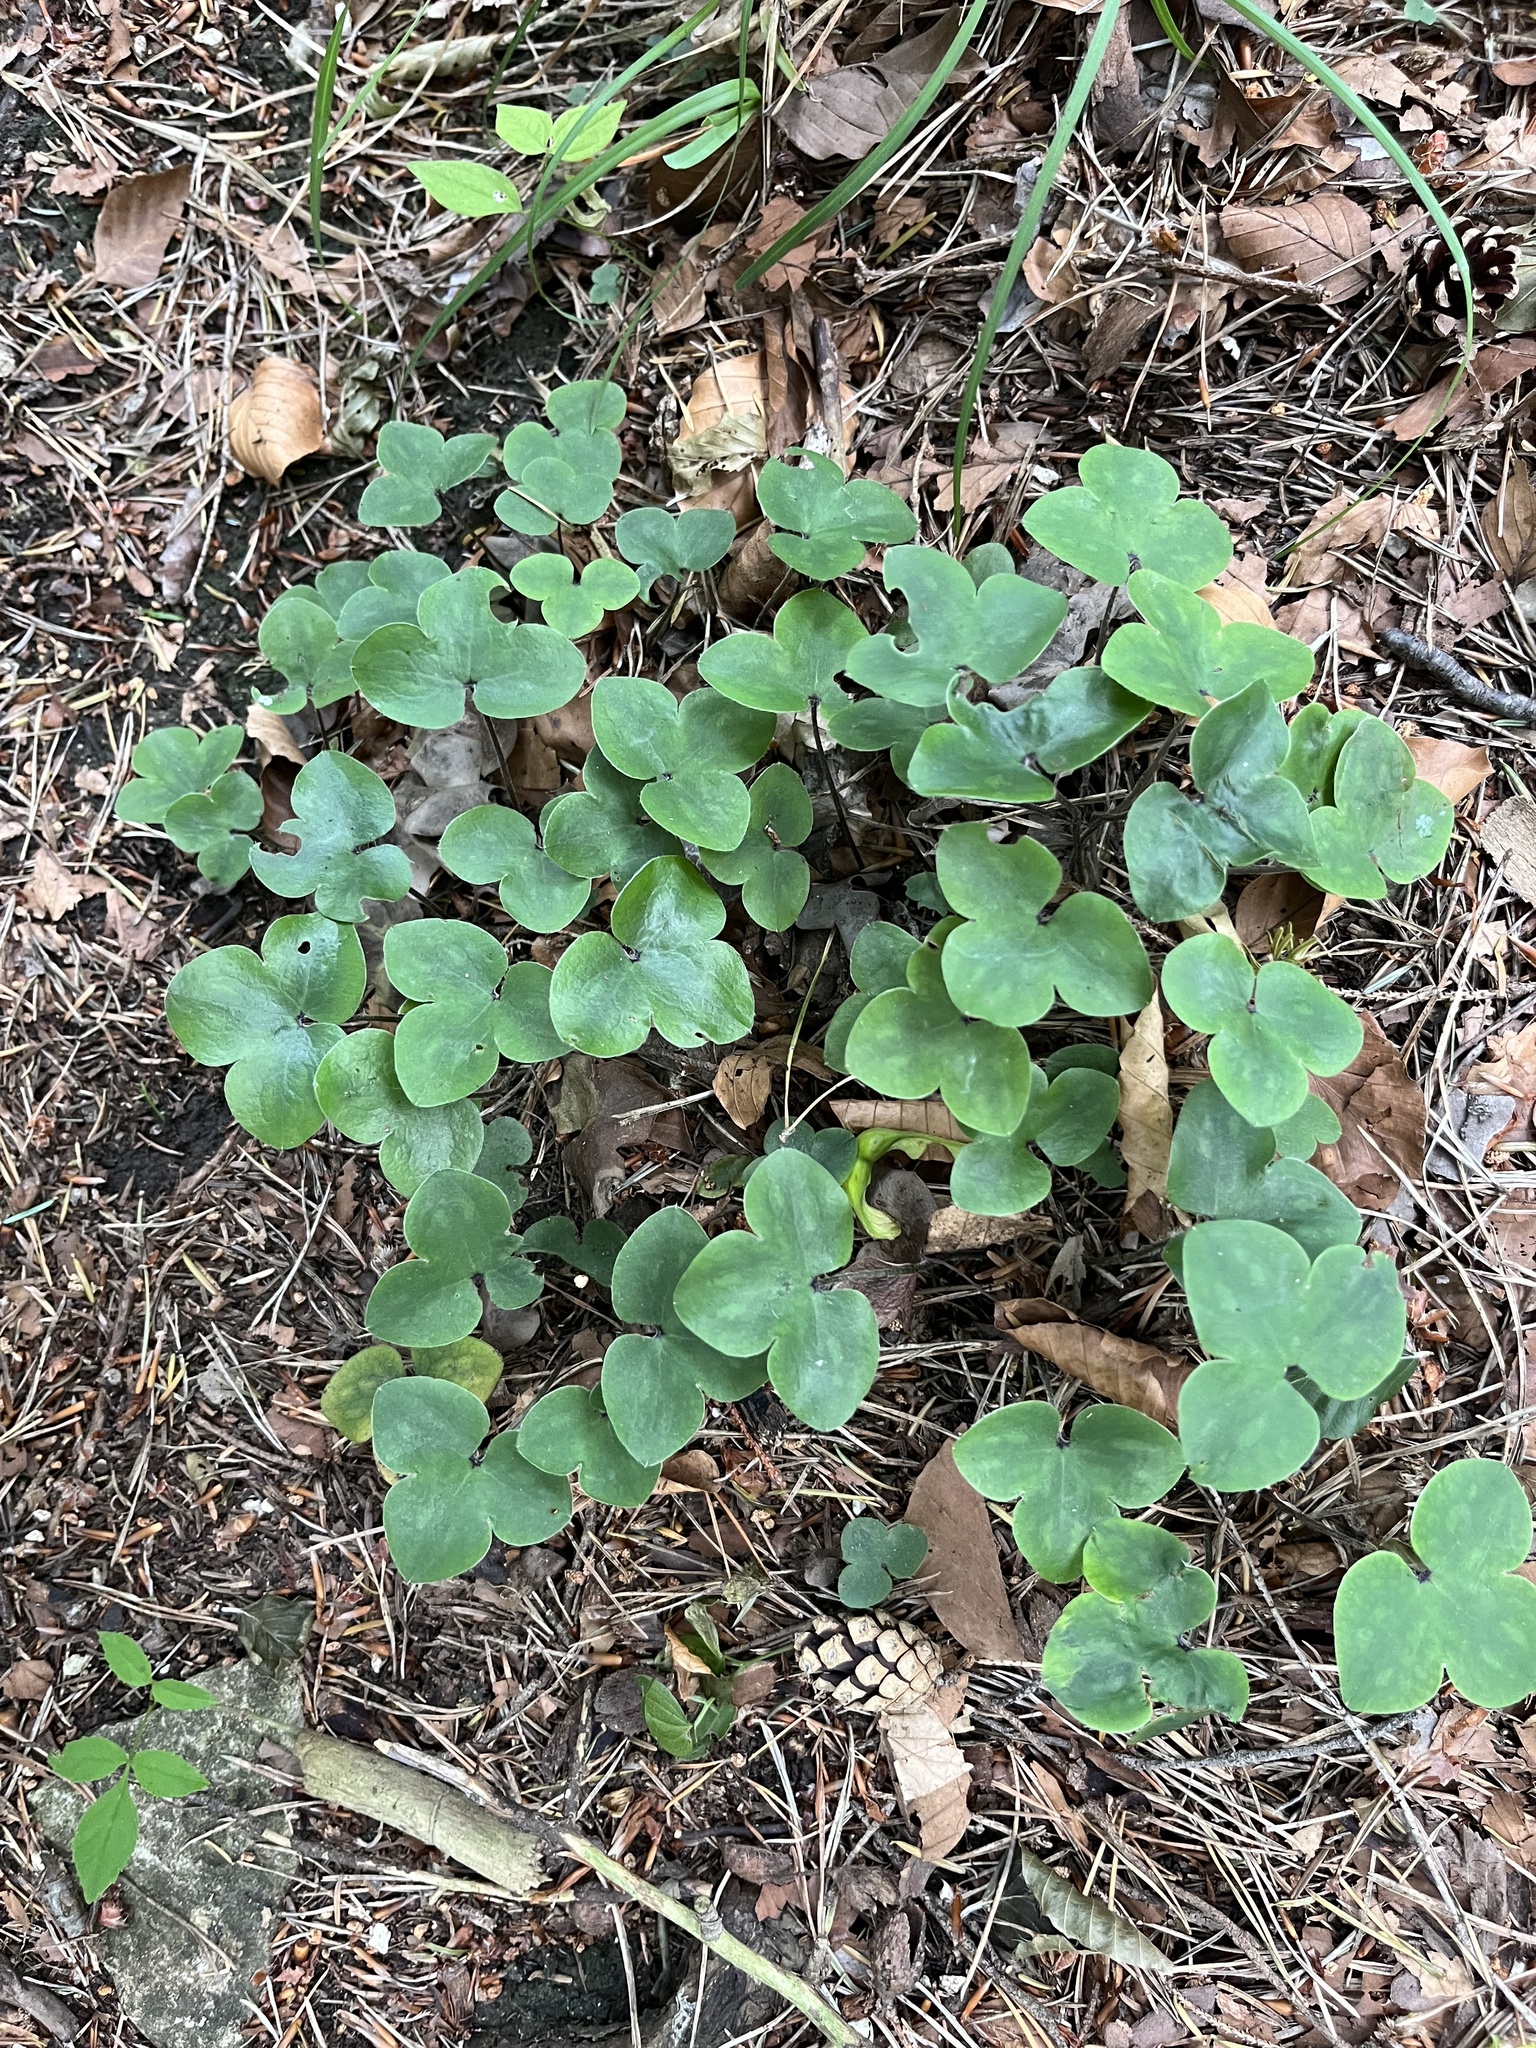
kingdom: Plantae
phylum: Tracheophyta
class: Magnoliopsida
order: Ranunculales
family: Ranunculaceae
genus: Hepatica
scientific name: Hepatica nobilis
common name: Liverleaf
